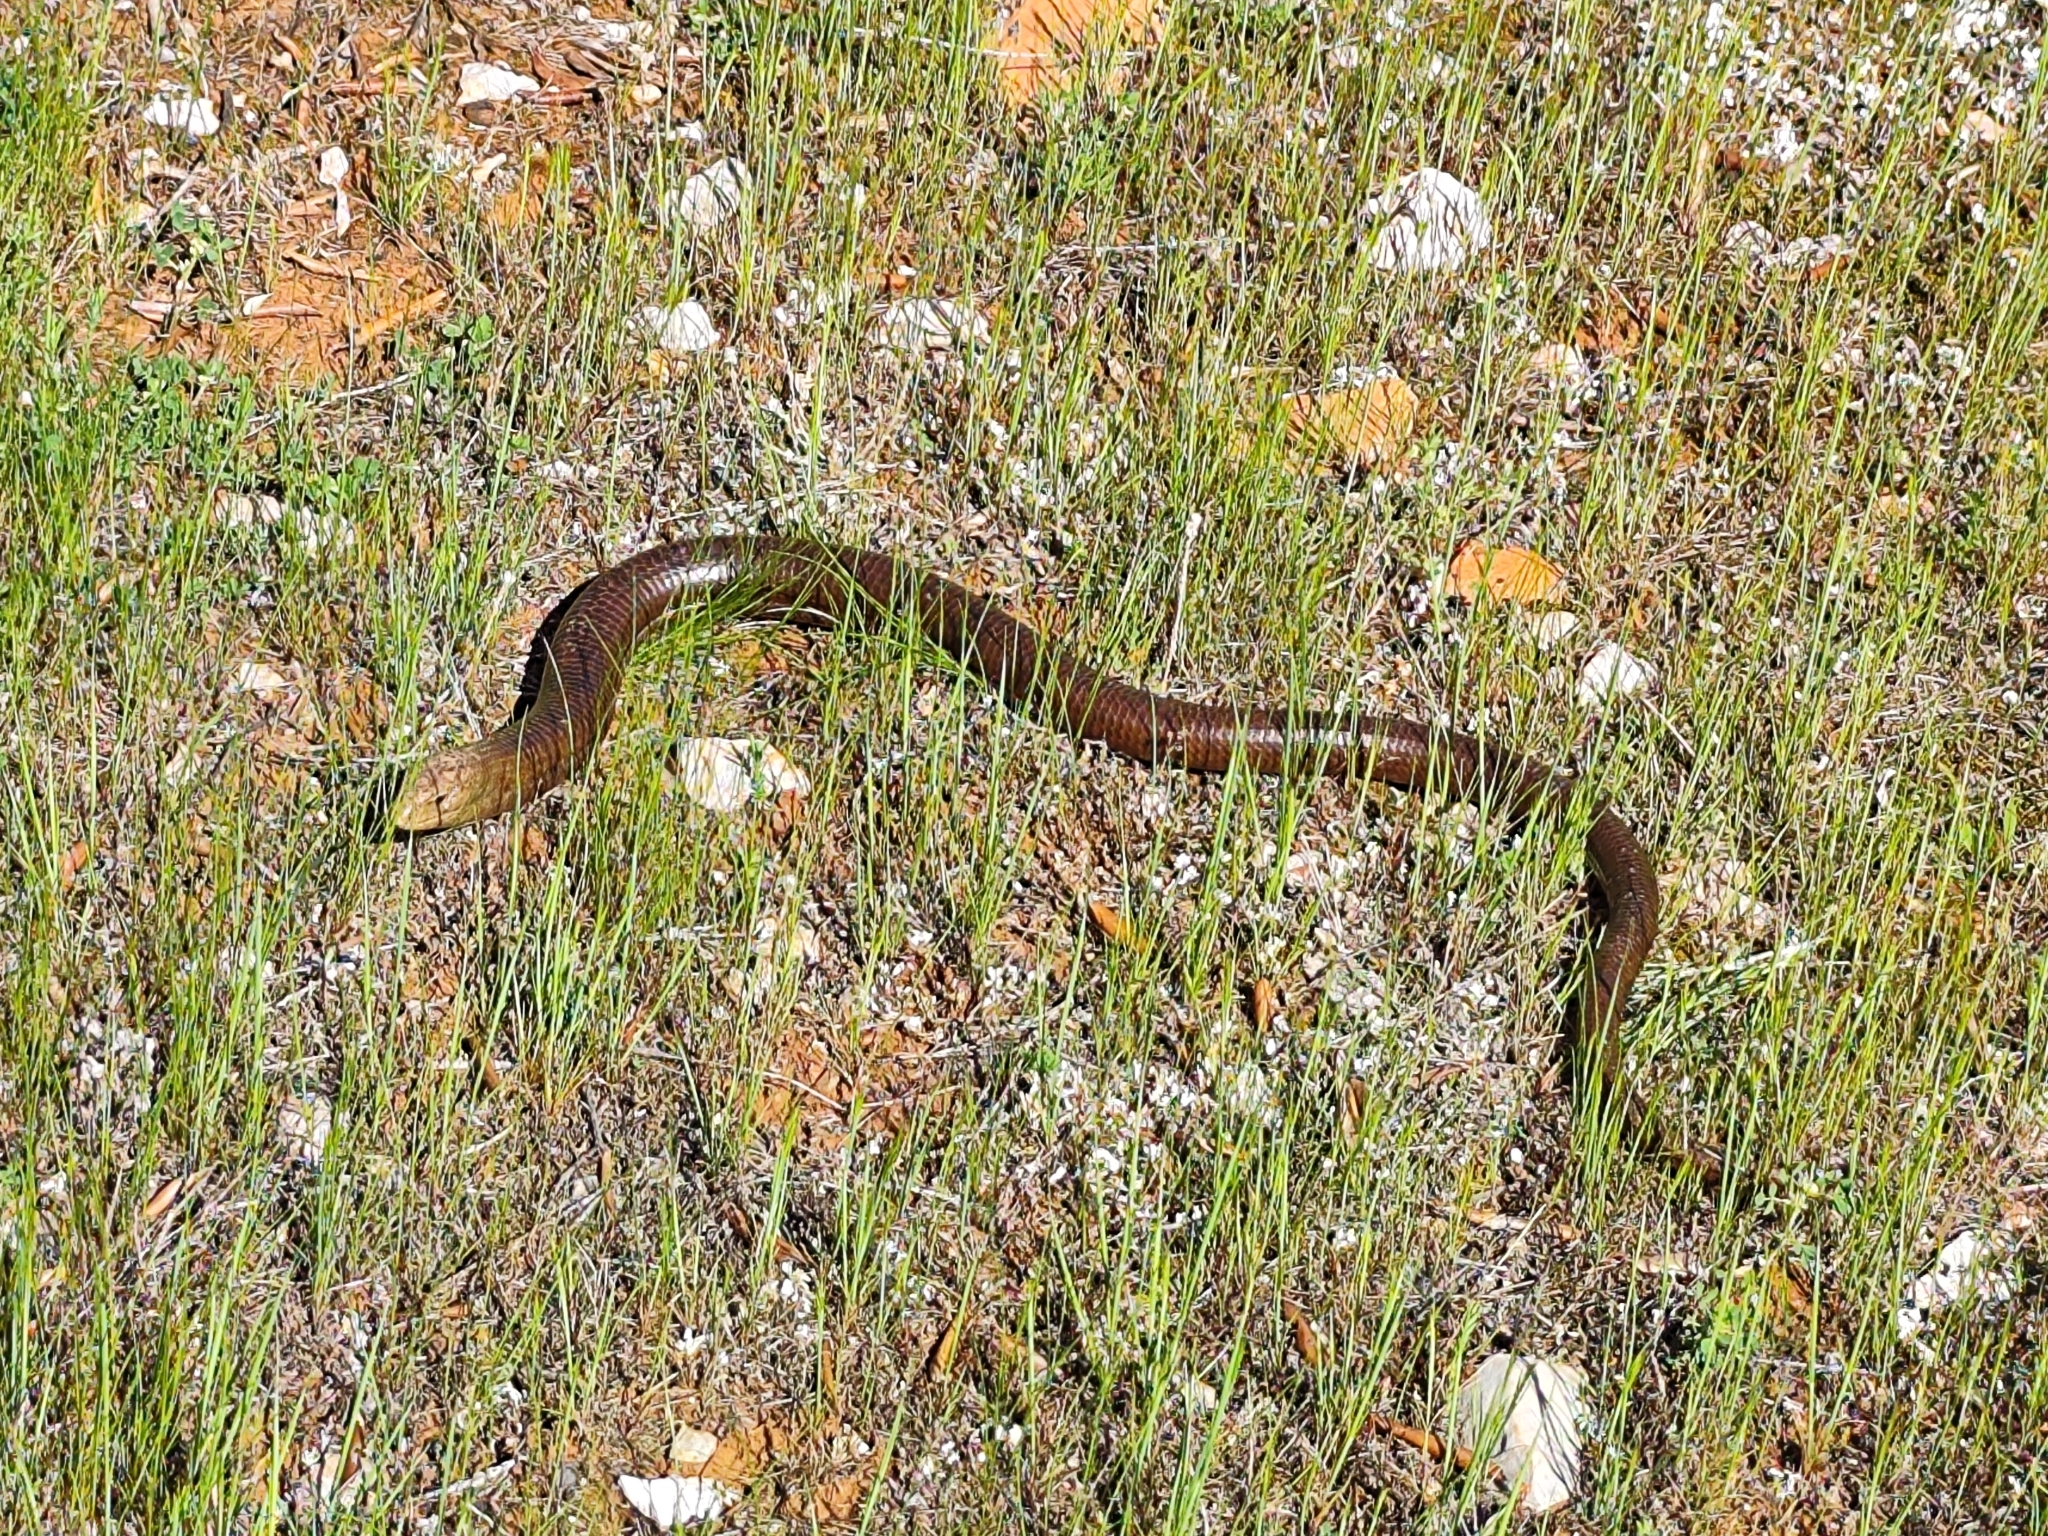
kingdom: Animalia
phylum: Chordata
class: Squamata
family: Anguidae
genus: Pseudopus
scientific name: Pseudopus apodus
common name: European glass lizard
